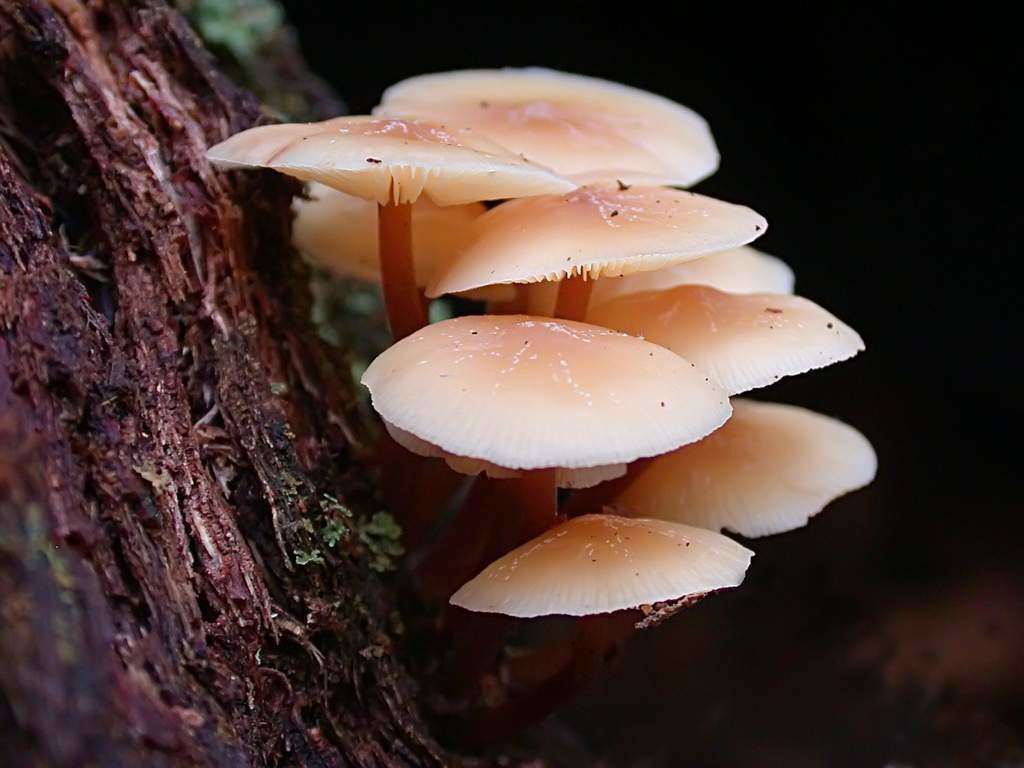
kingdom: Fungi
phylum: Basidiomycota
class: Agaricomycetes
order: Agaricales
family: Omphalotaceae
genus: Rhodocollybia
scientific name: Rhodocollybia
